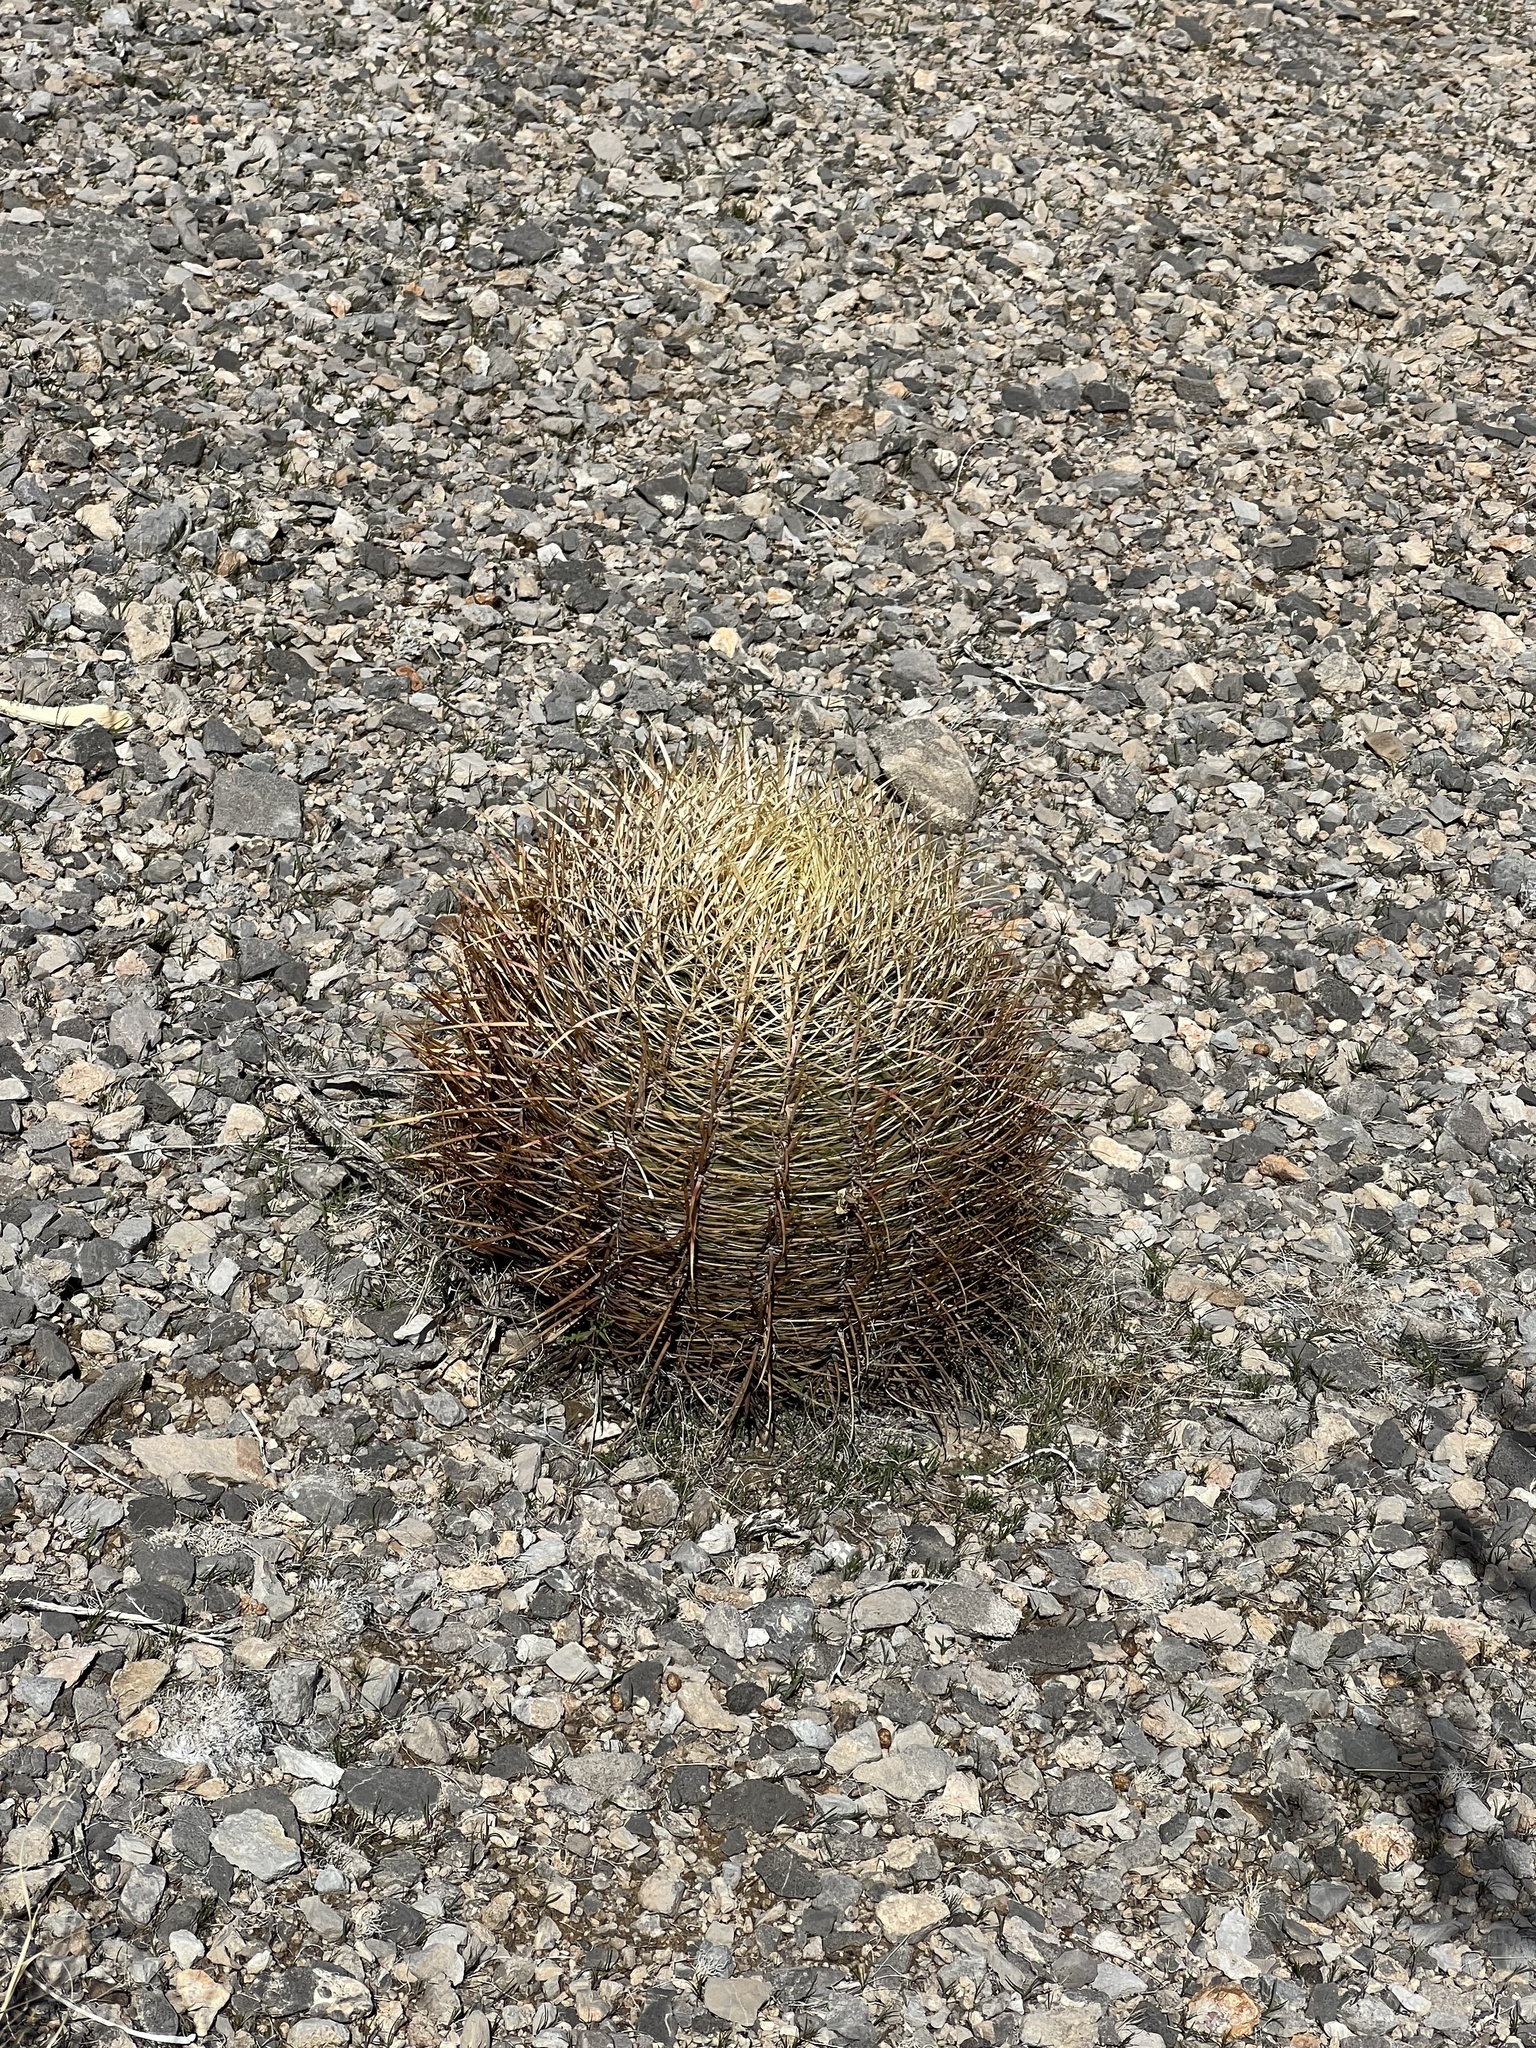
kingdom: Plantae
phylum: Tracheophyta
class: Magnoliopsida
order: Caryophyllales
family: Cactaceae
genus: Ferocactus
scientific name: Ferocactus cylindraceus
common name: California barrel cactus
